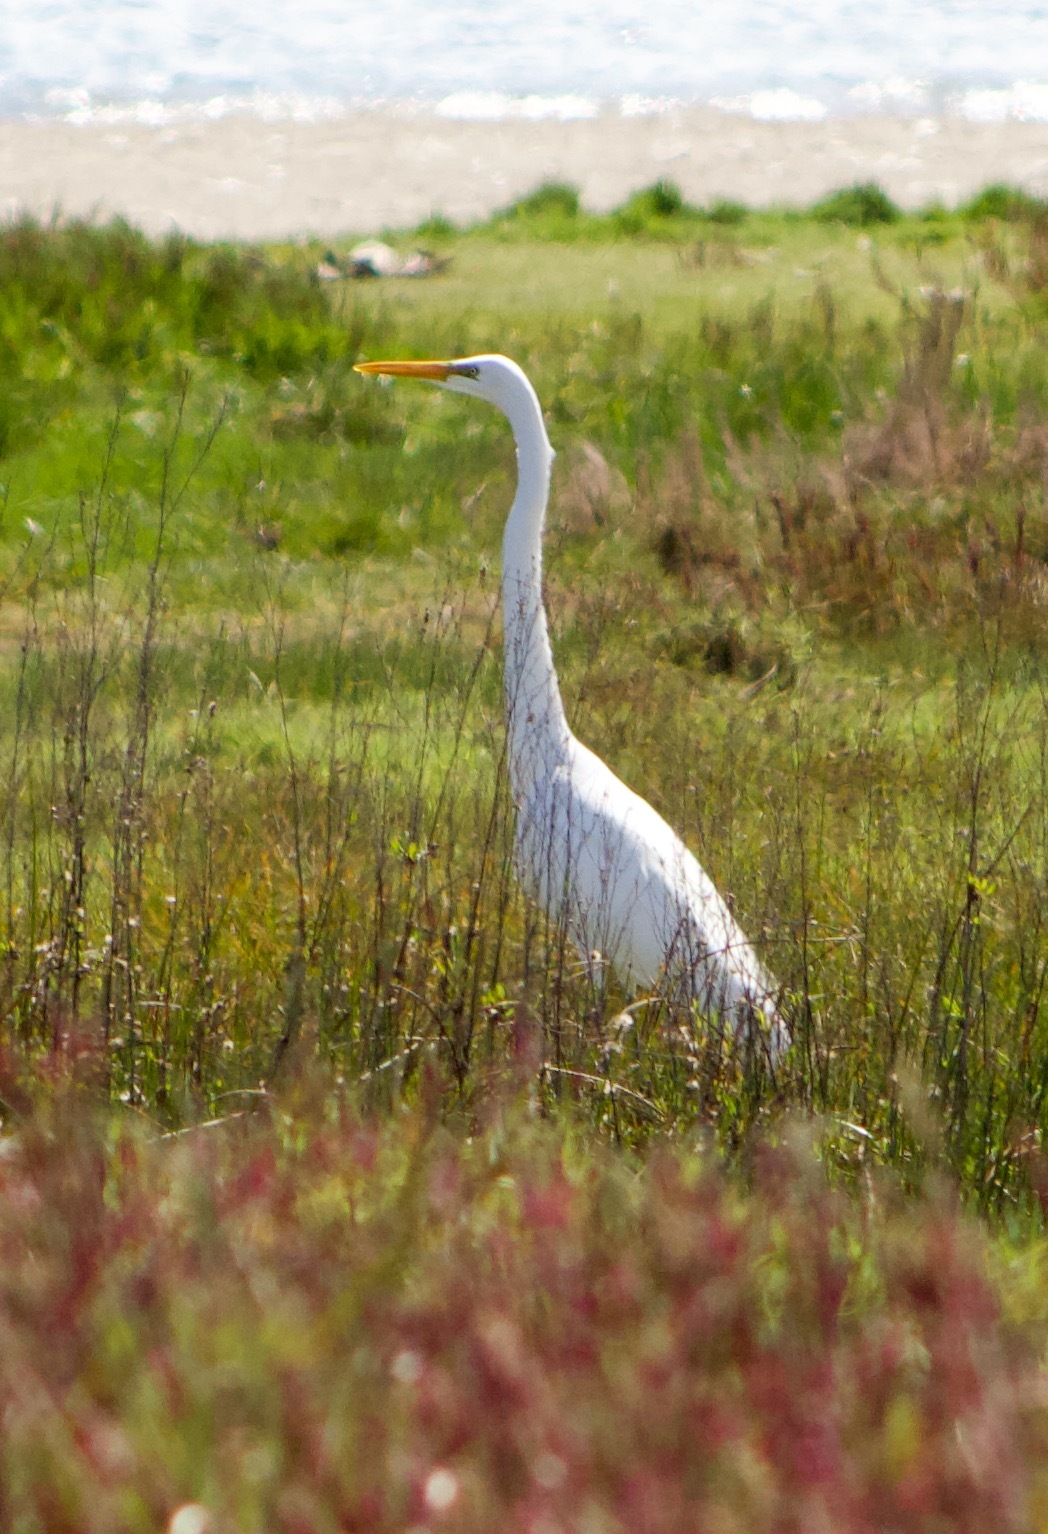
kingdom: Animalia
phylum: Chordata
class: Aves
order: Pelecaniformes
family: Ardeidae
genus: Ardea
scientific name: Ardea alba
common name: Great egret
